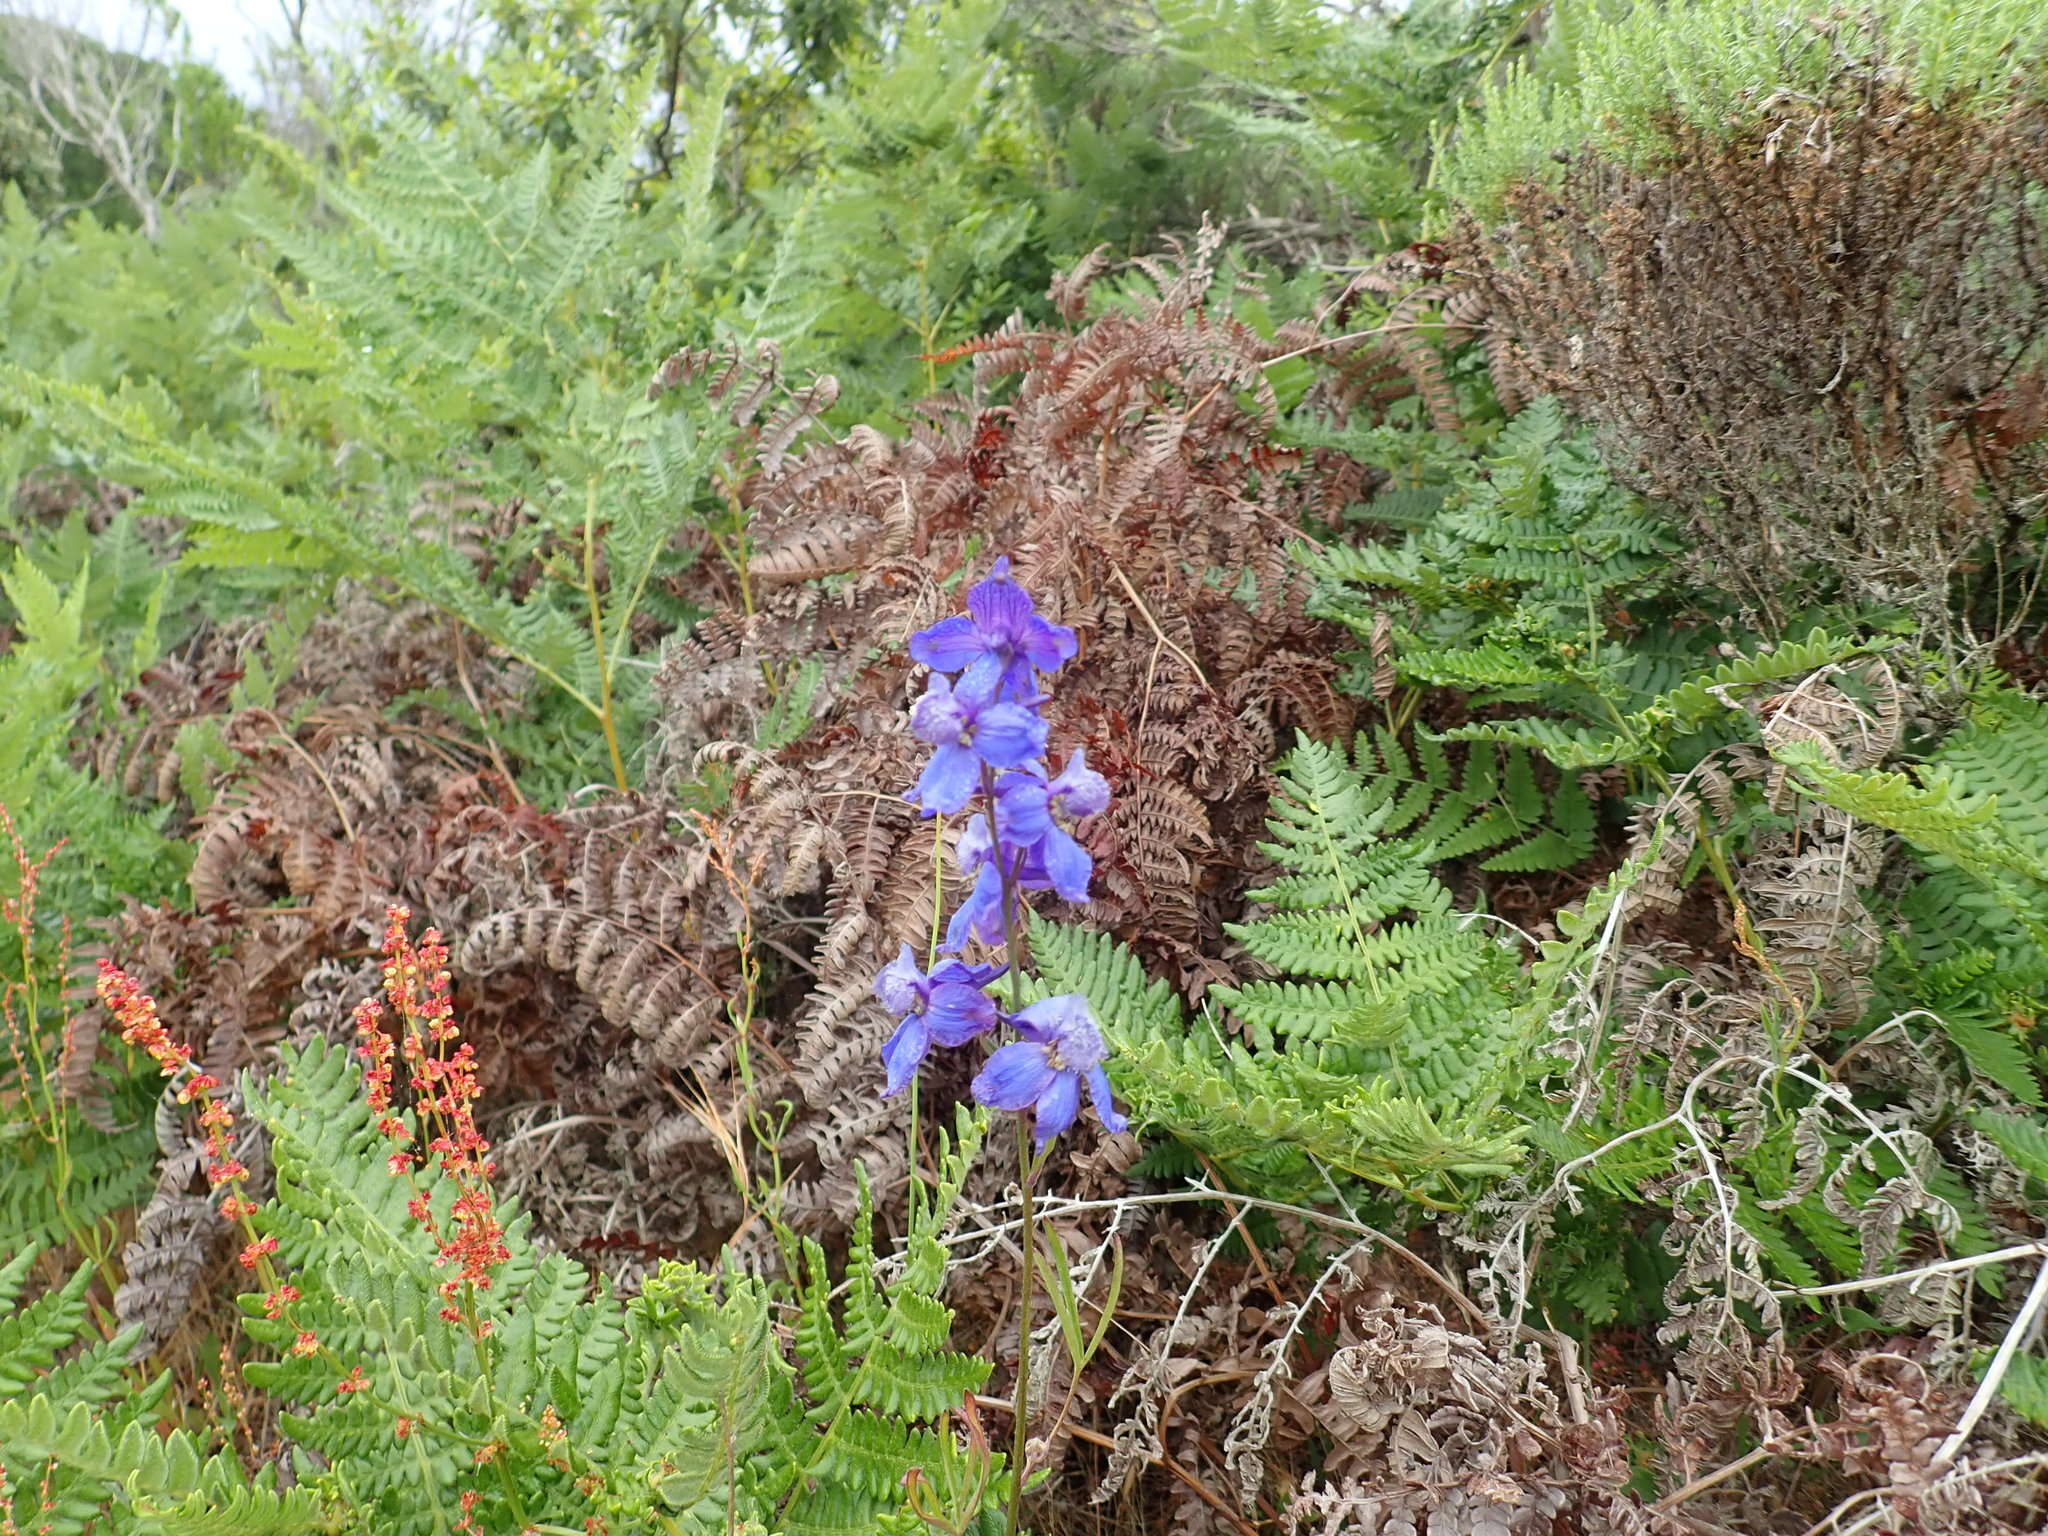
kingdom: Plantae
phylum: Tracheophyta
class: Magnoliopsida
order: Ranunculales
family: Ranunculaceae
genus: Delphinium
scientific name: Delphinium parryi
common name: Parry's larkspur
